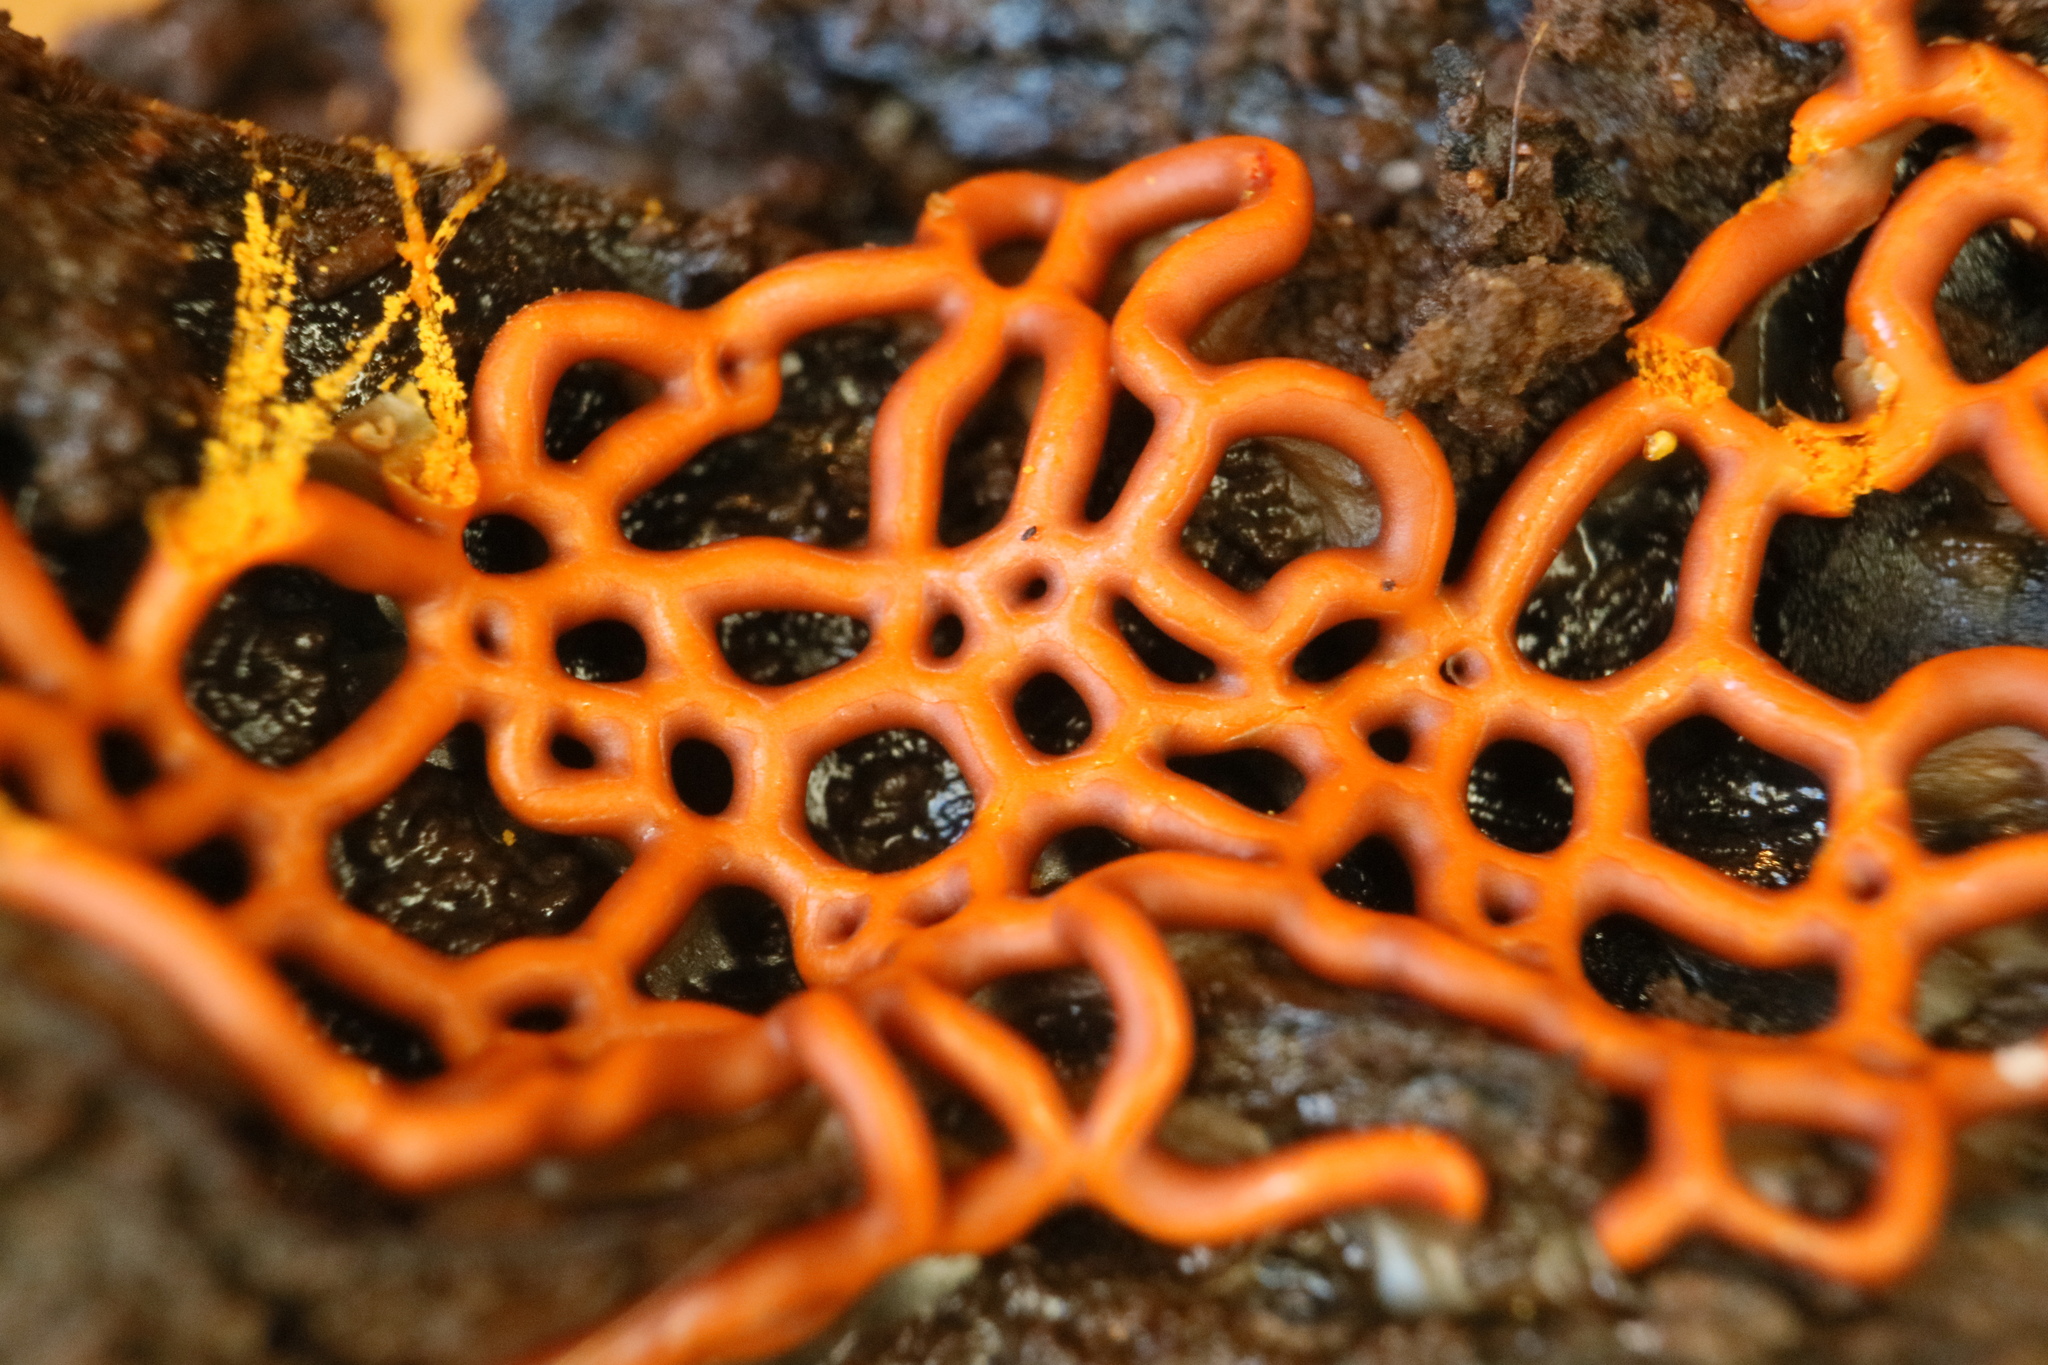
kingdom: Protozoa
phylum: Mycetozoa
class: Myxomycetes
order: Trichiales
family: Arcyriaceae
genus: Hemitrichia
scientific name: Hemitrichia serpula
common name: Pretzel slime mold
